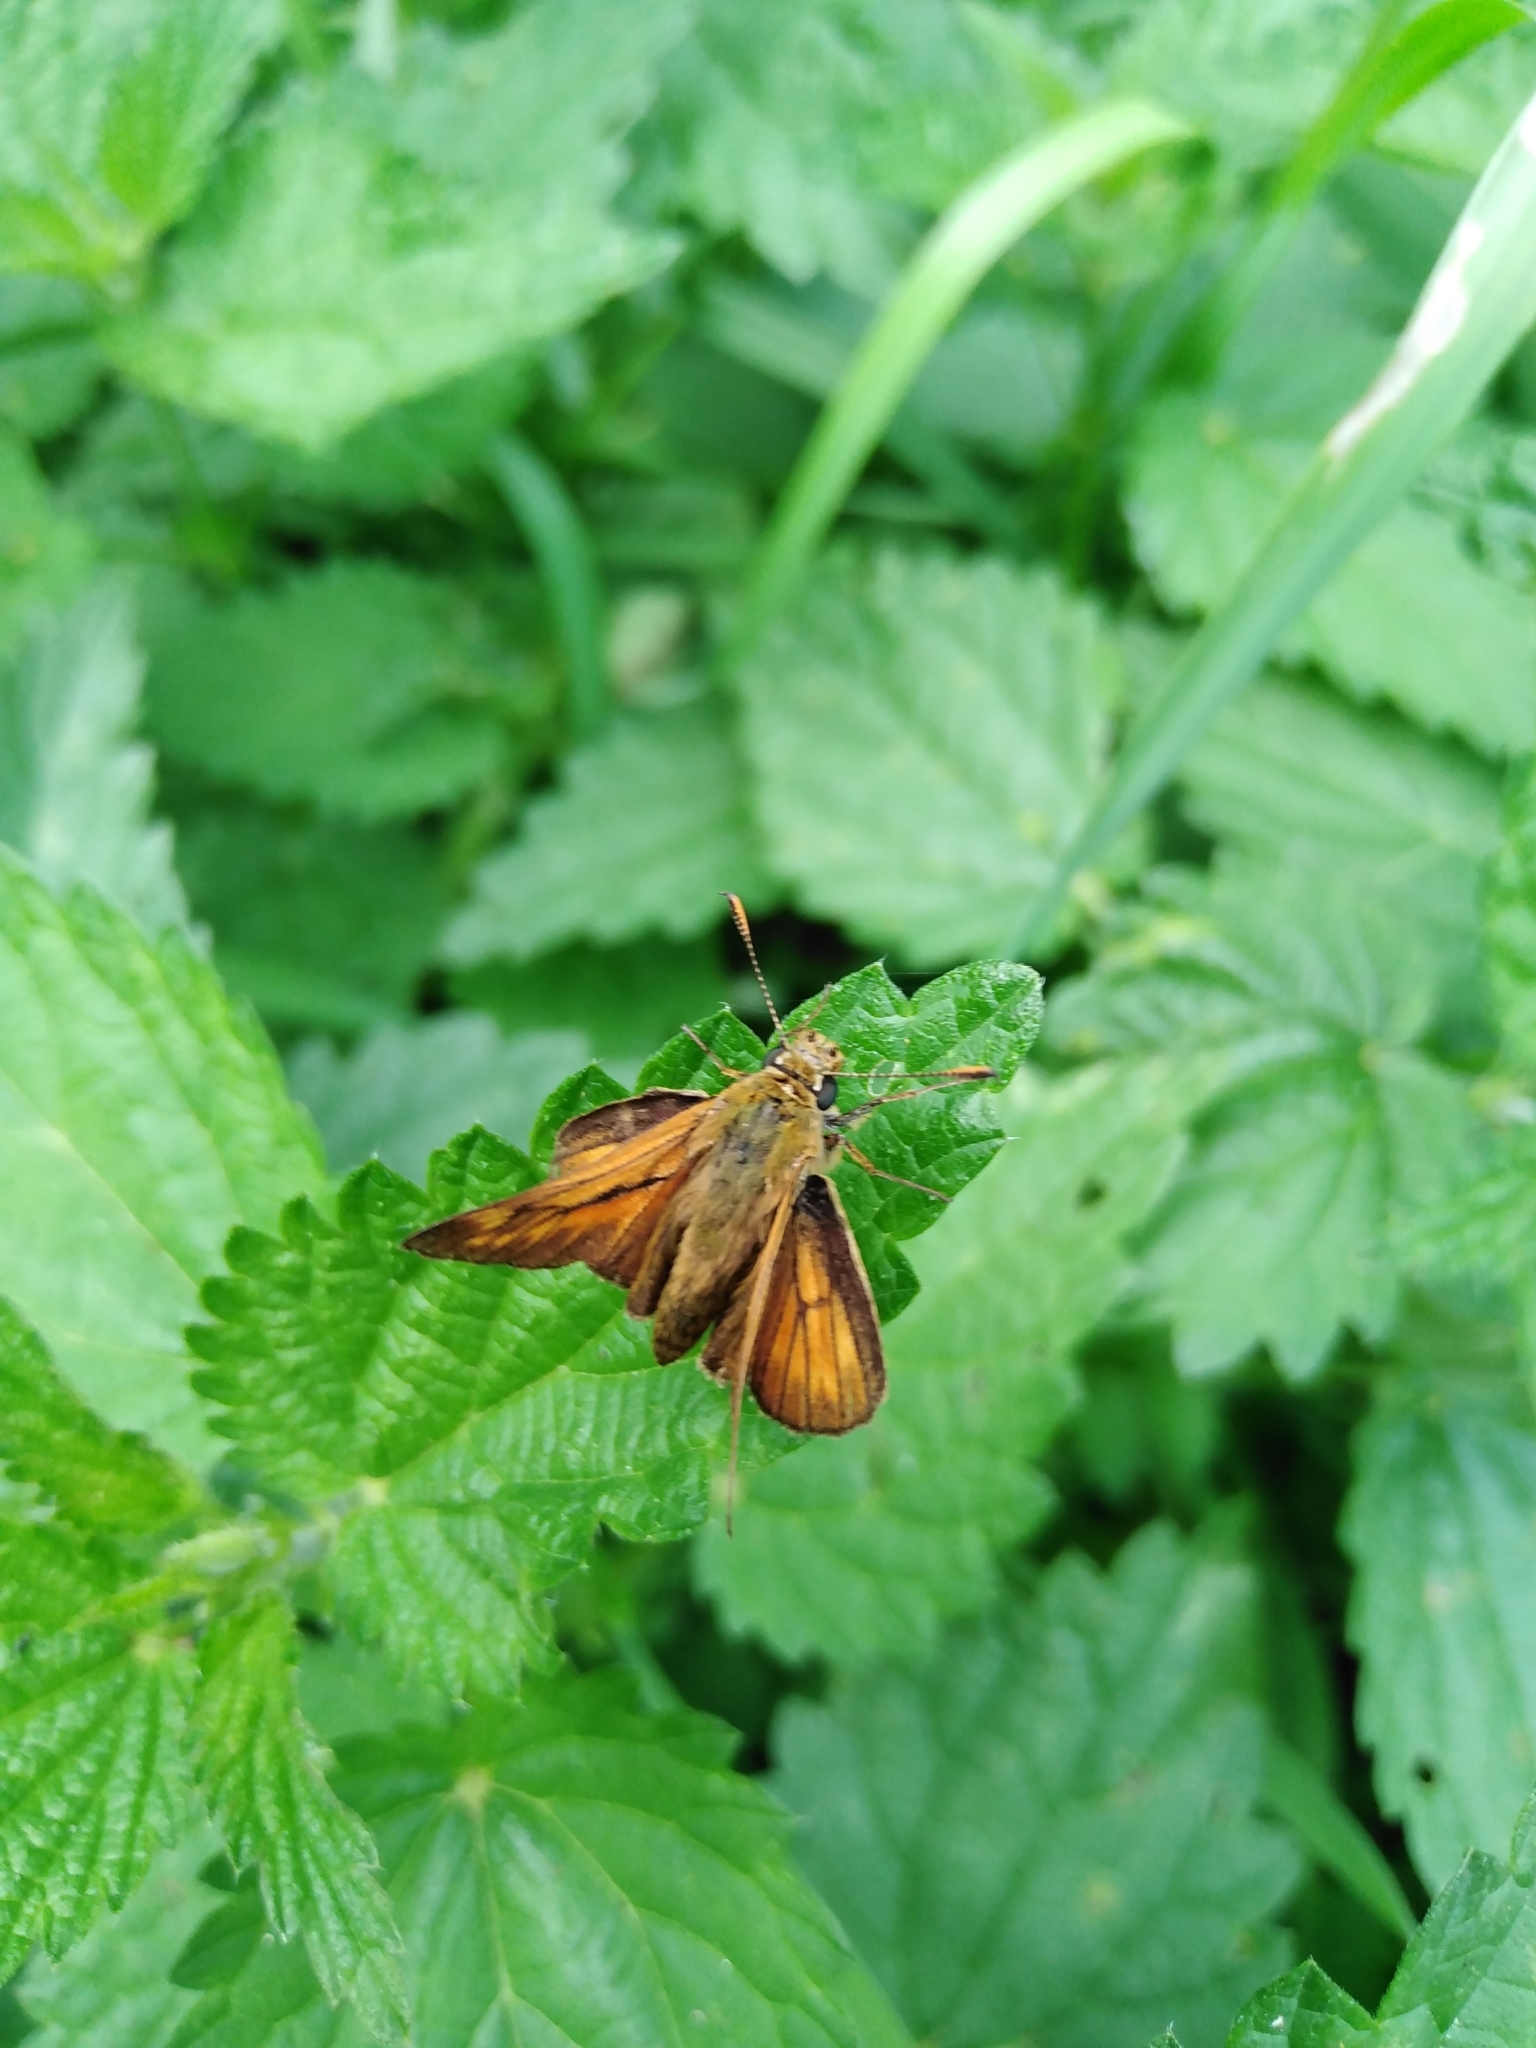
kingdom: Animalia
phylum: Arthropoda
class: Insecta
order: Lepidoptera
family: Hesperiidae
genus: Ochlodes
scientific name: Ochlodes venata
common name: Large skipper
